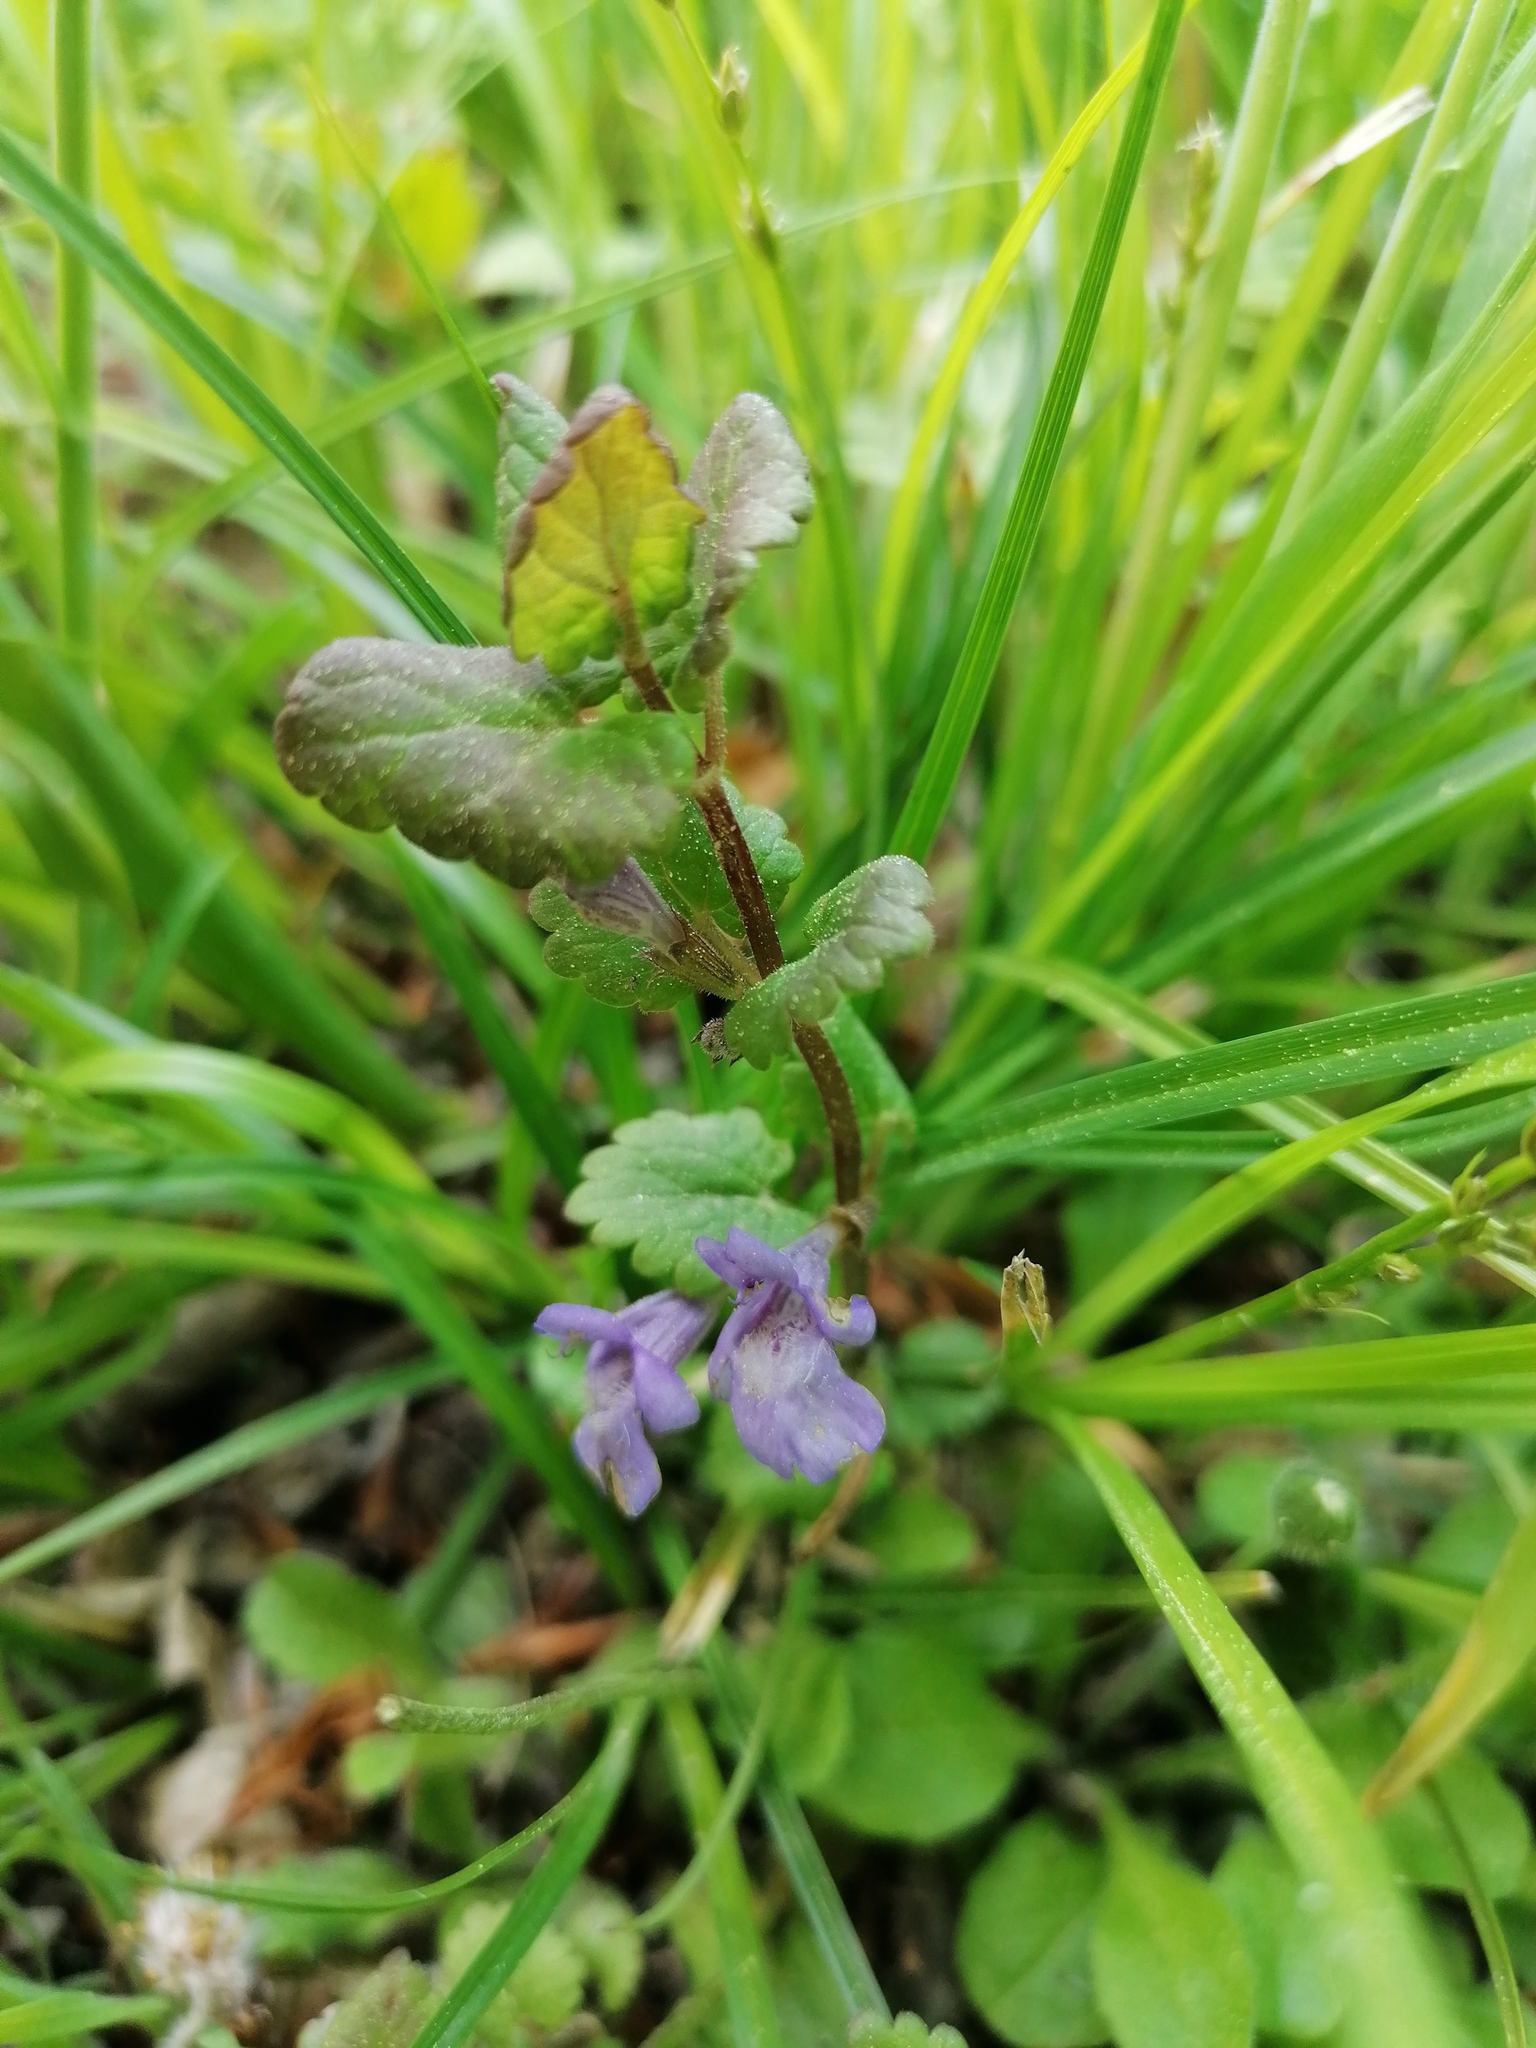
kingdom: Plantae
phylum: Tracheophyta
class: Magnoliopsida
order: Lamiales
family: Lamiaceae
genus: Glechoma
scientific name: Glechoma hederacea
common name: Ground ivy
